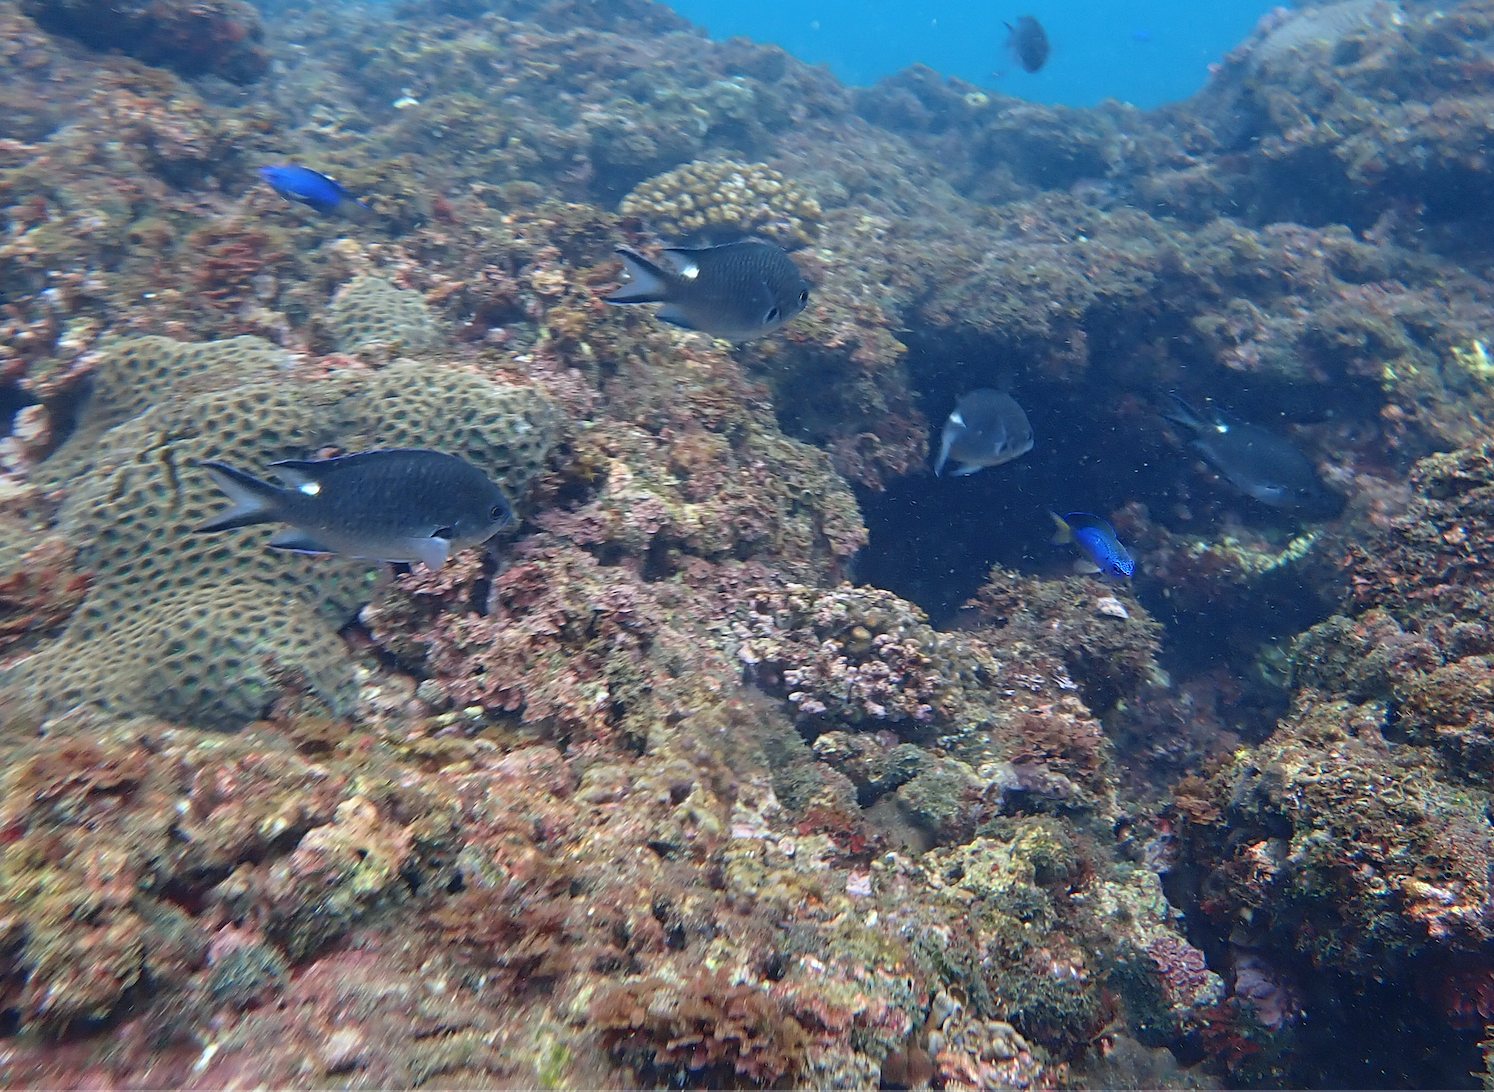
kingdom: Animalia
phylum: Chordata
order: Perciformes
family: Pomacentridae
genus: Chromis
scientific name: Chromis notata
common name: Pearl-spot chromis
